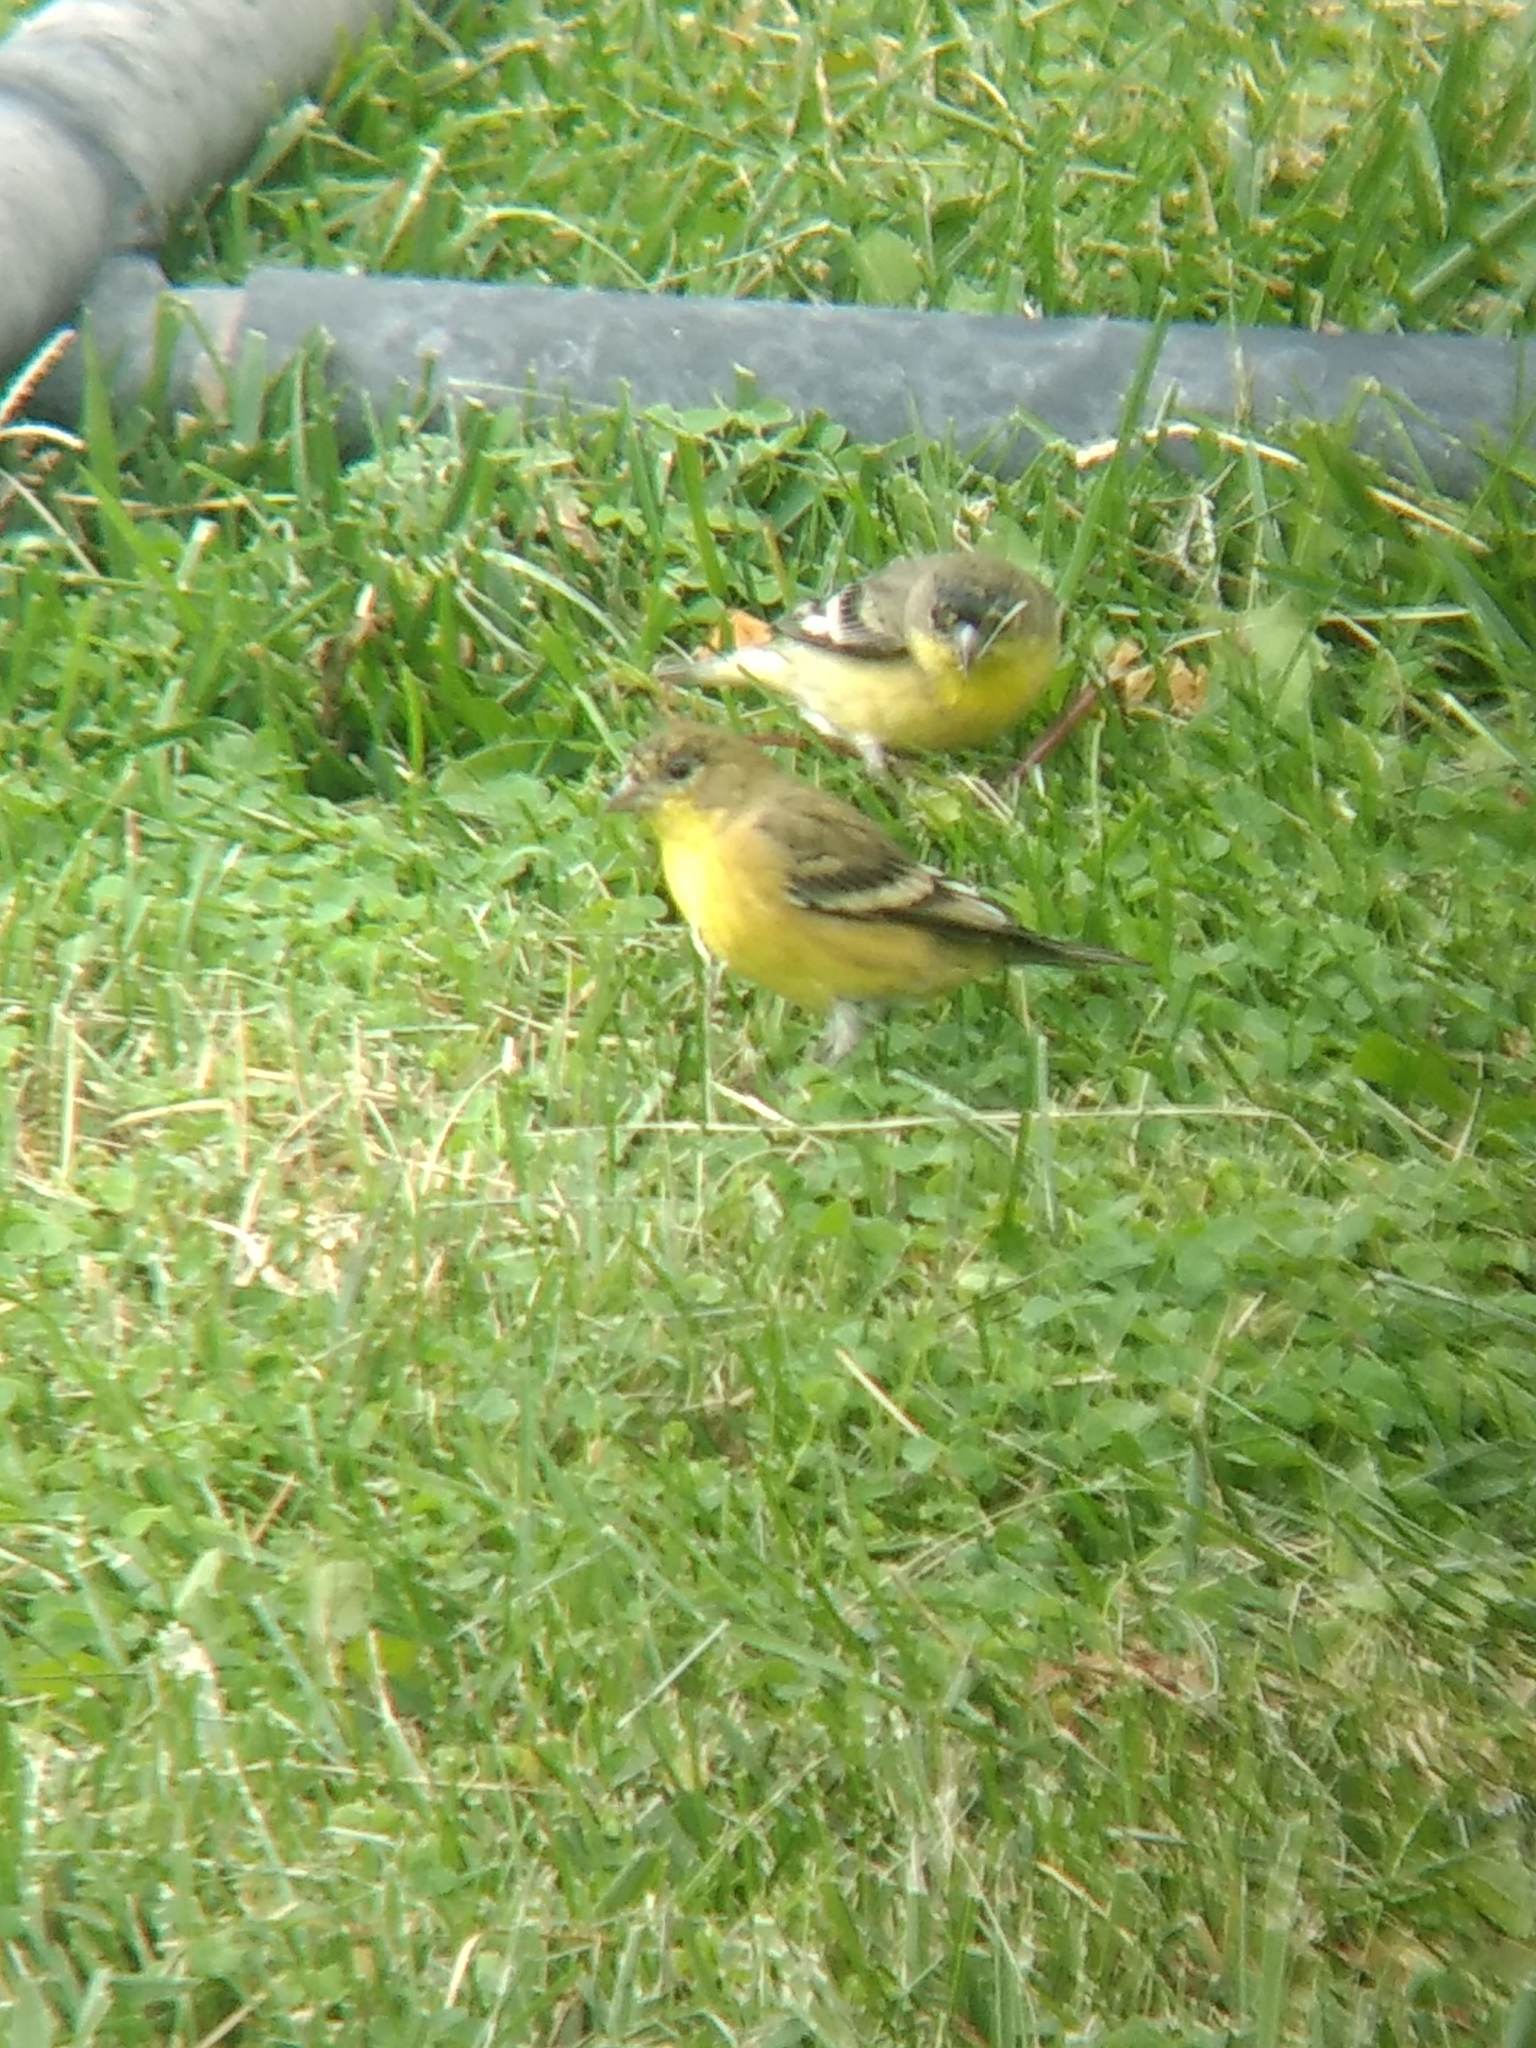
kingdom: Animalia
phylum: Chordata
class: Aves
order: Passeriformes
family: Fringillidae
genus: Spinus
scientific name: Spinus psaltria
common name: Lesser goldfinch
